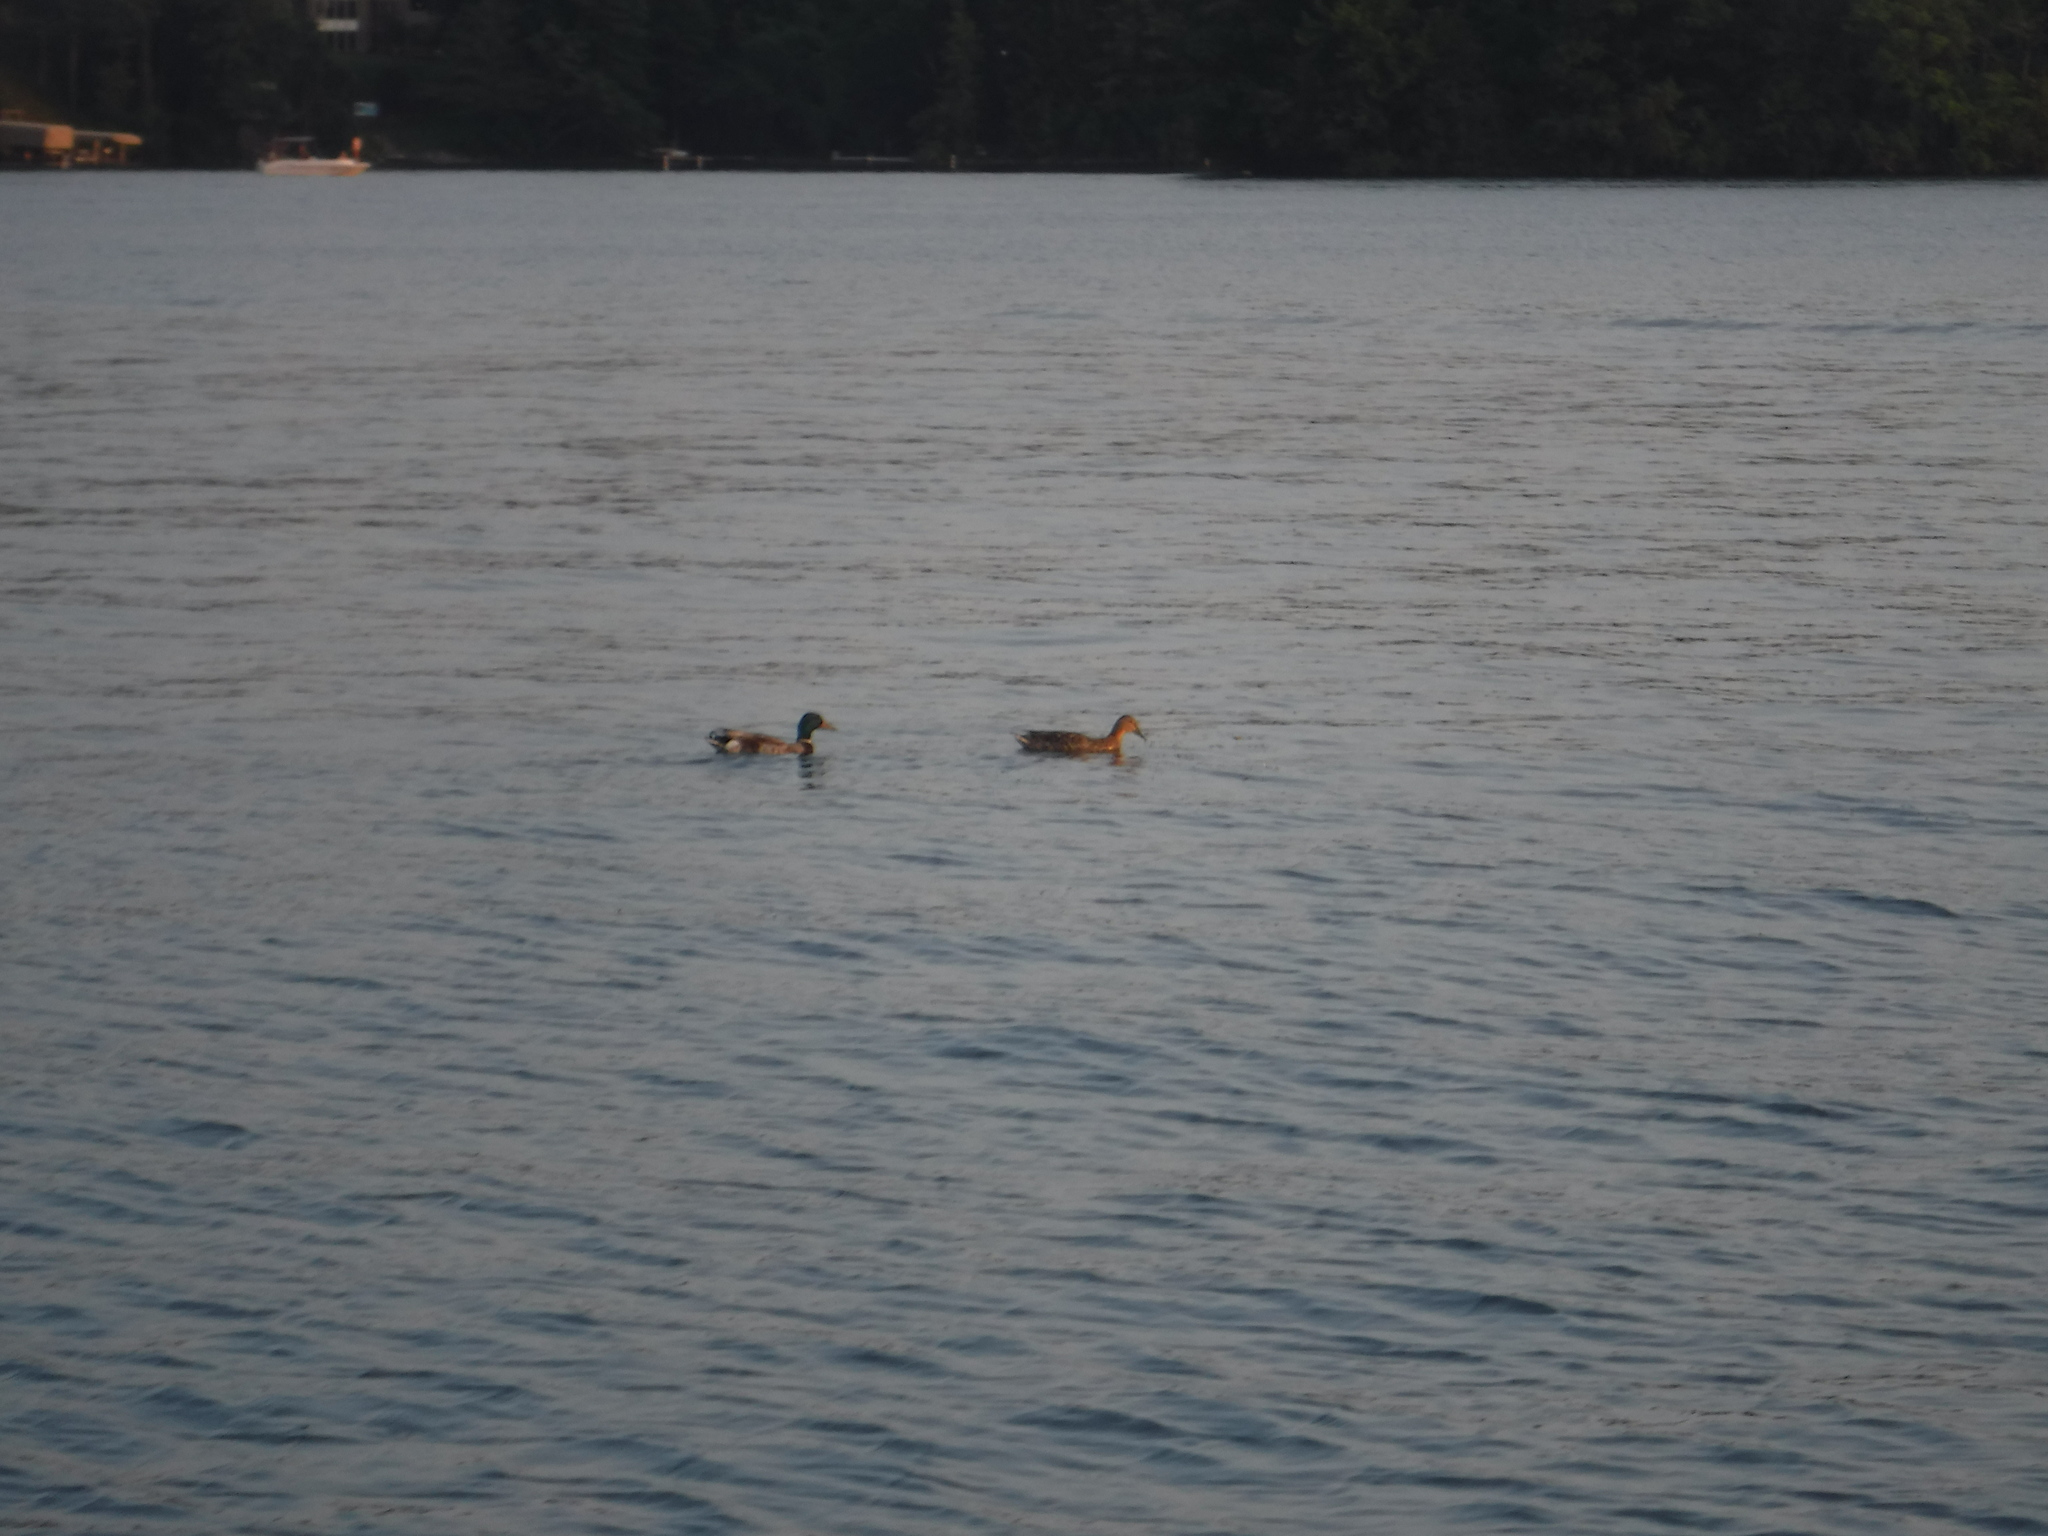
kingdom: Animalia
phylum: Chordata
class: Aves
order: Anseriformes
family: Anatidae
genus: Anas
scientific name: Anas platyrhynchos
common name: Mallard
